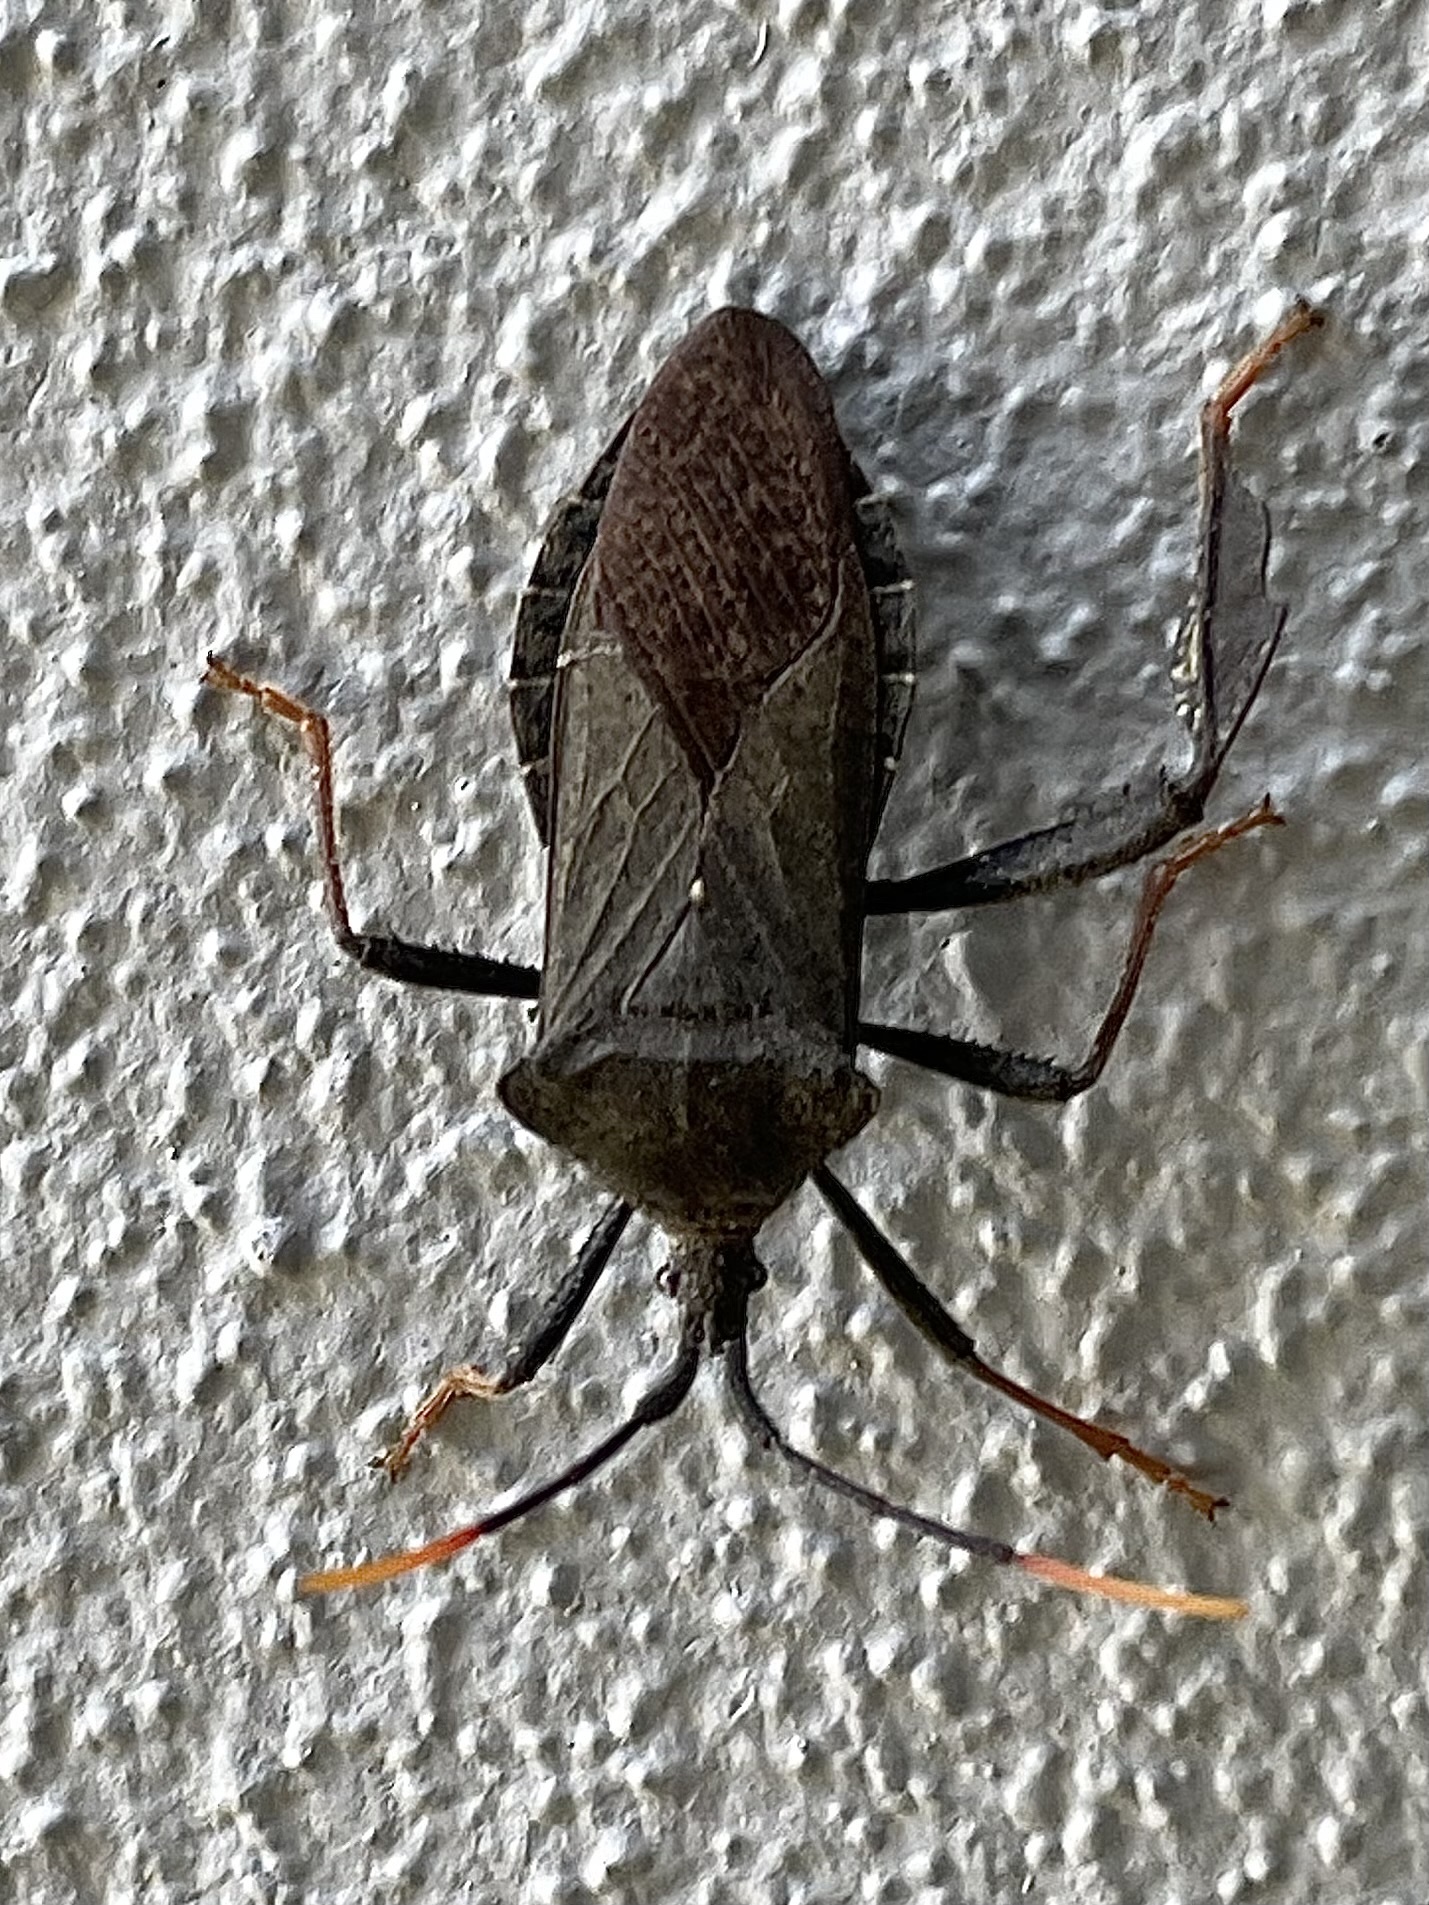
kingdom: Animalia
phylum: Arthropoda
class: Insecta
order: Hemiptera
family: Coreidae
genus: Acanthocephala
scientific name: Acanthocephala terminalis
